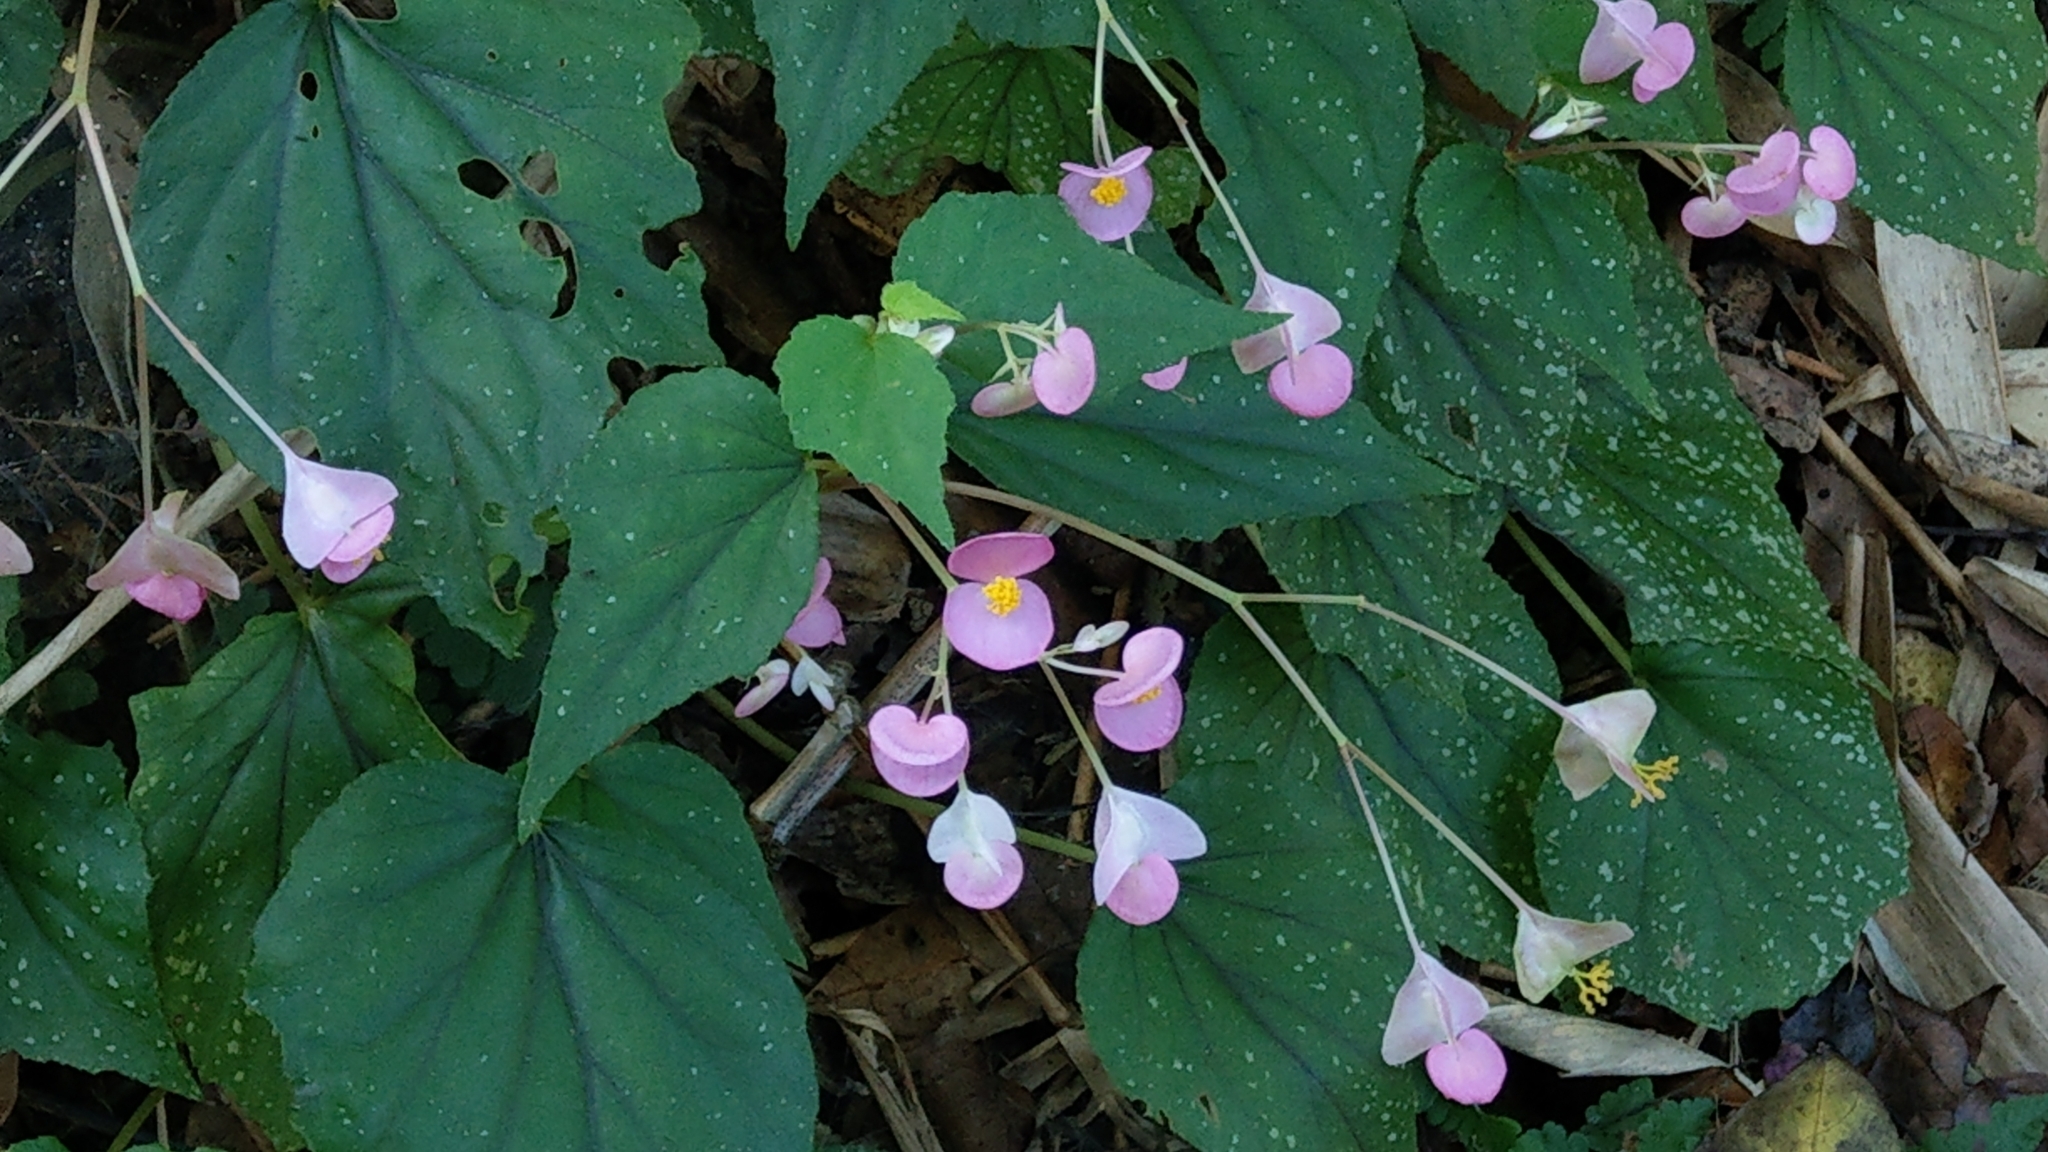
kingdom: Plantae
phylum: Tracheophyta
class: Magnoliopsida
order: Cucurbitales
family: Begoniaceae
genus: Begonia
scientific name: Begonia ravenii
